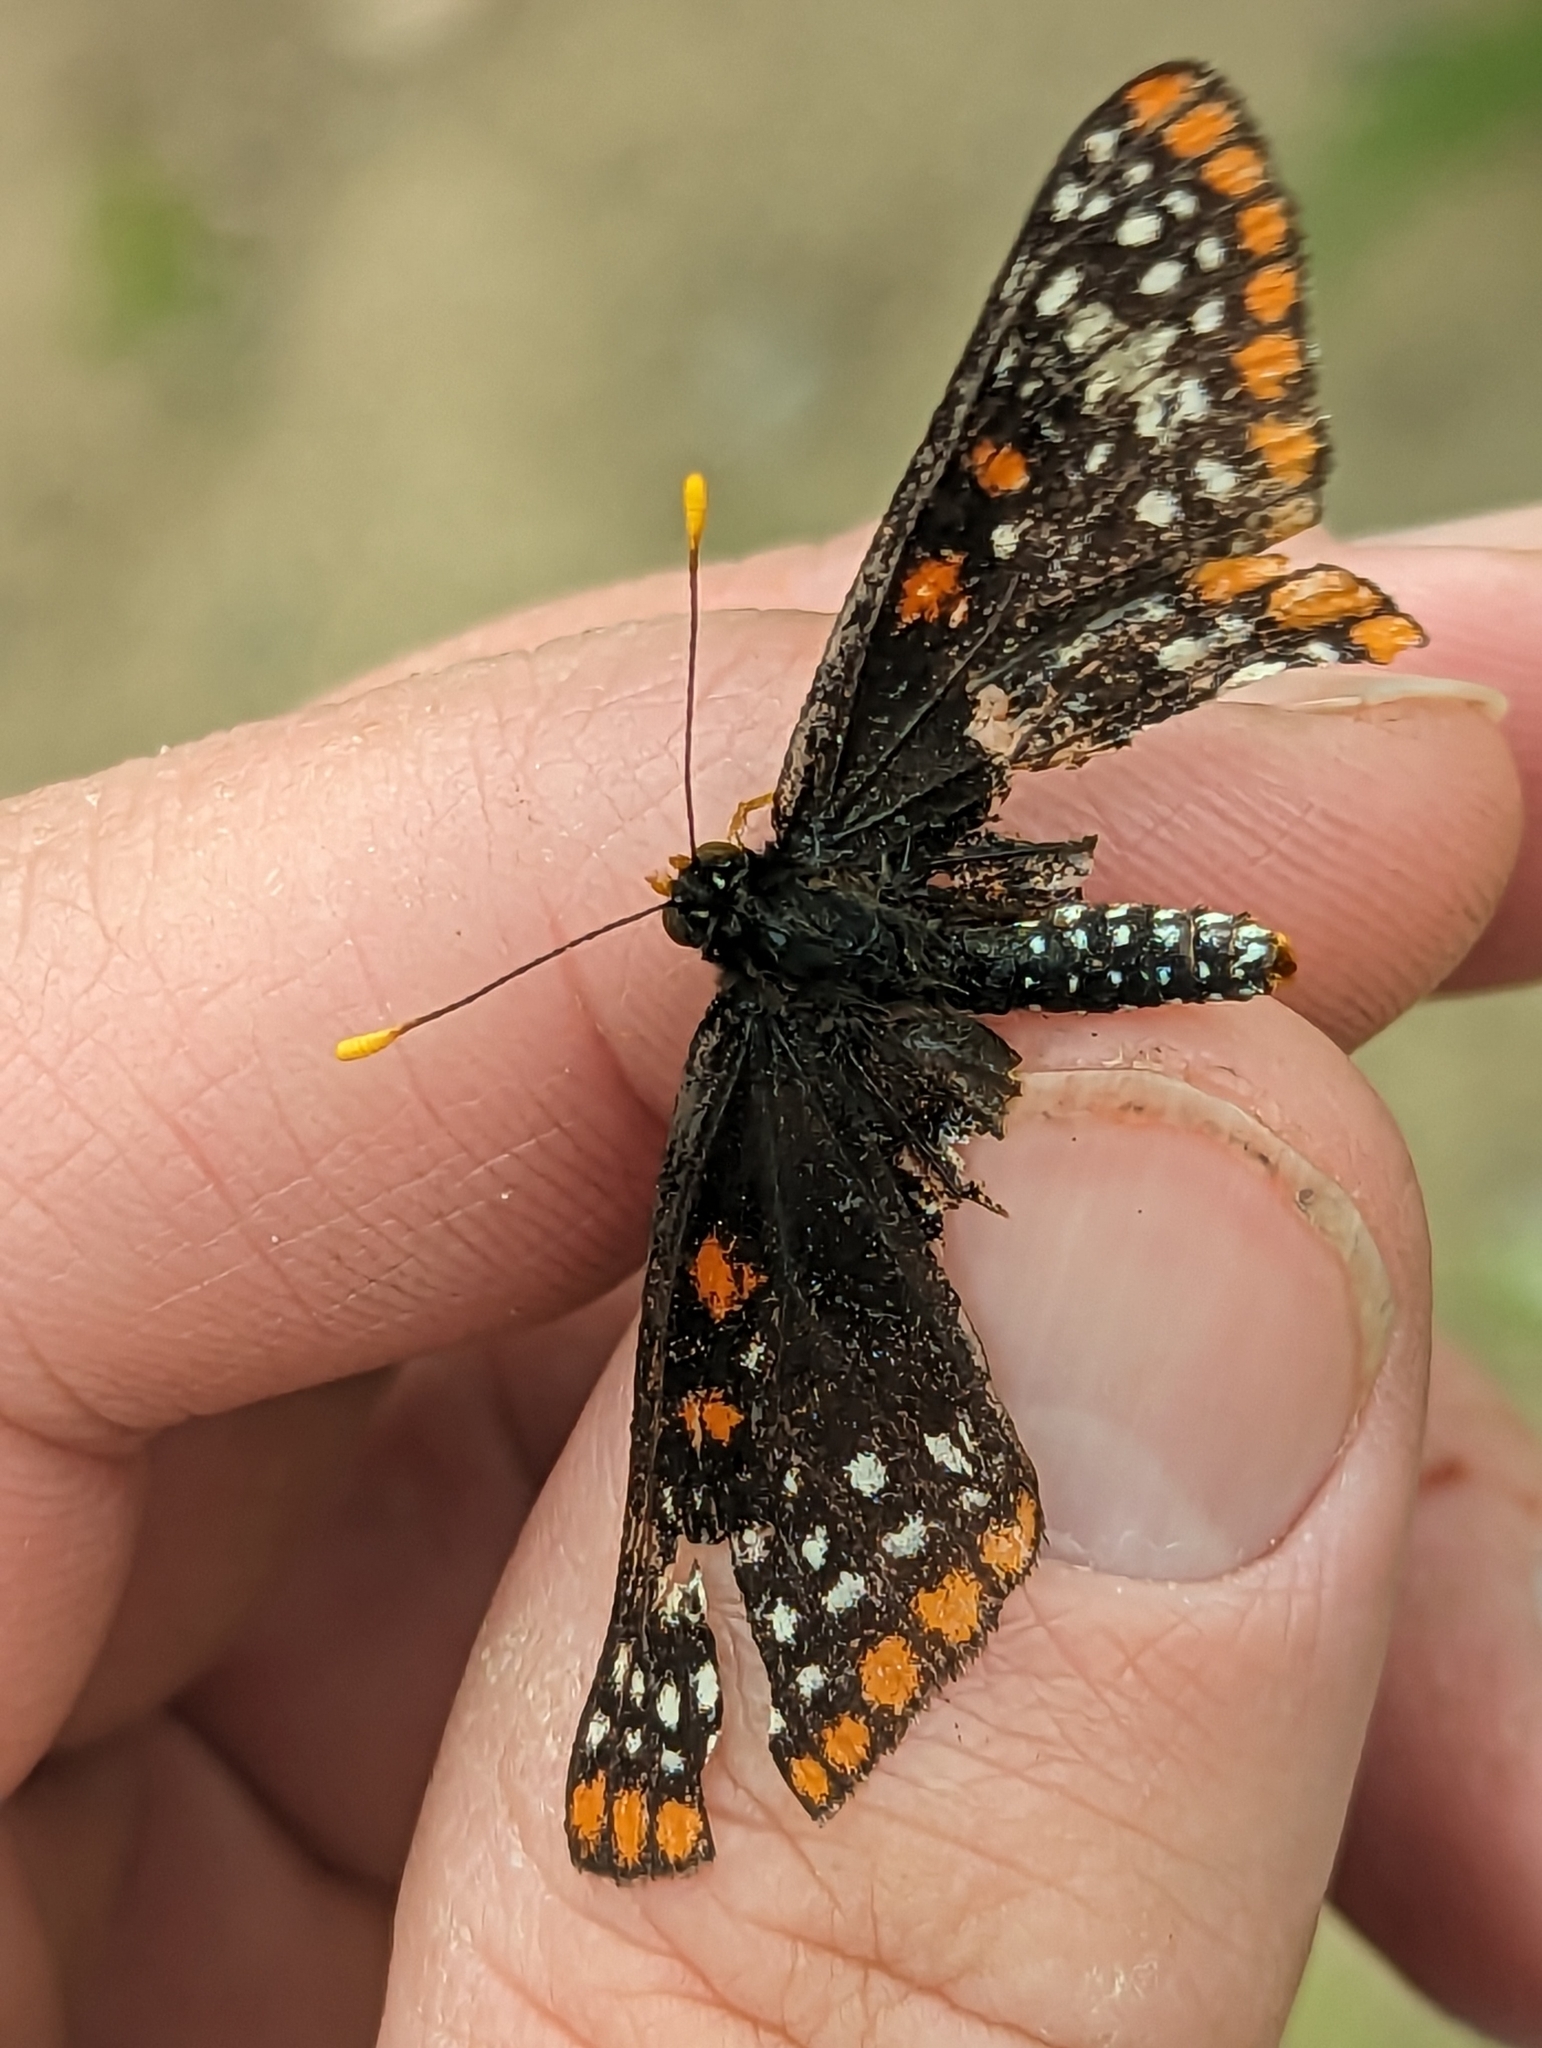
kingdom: Animalia
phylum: Arthropoda
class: Insecta
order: Lepidoptera
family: Nymphalidae
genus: Euphydryas
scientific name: Euphydryas phaeton
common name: Baltimore checkerspot
